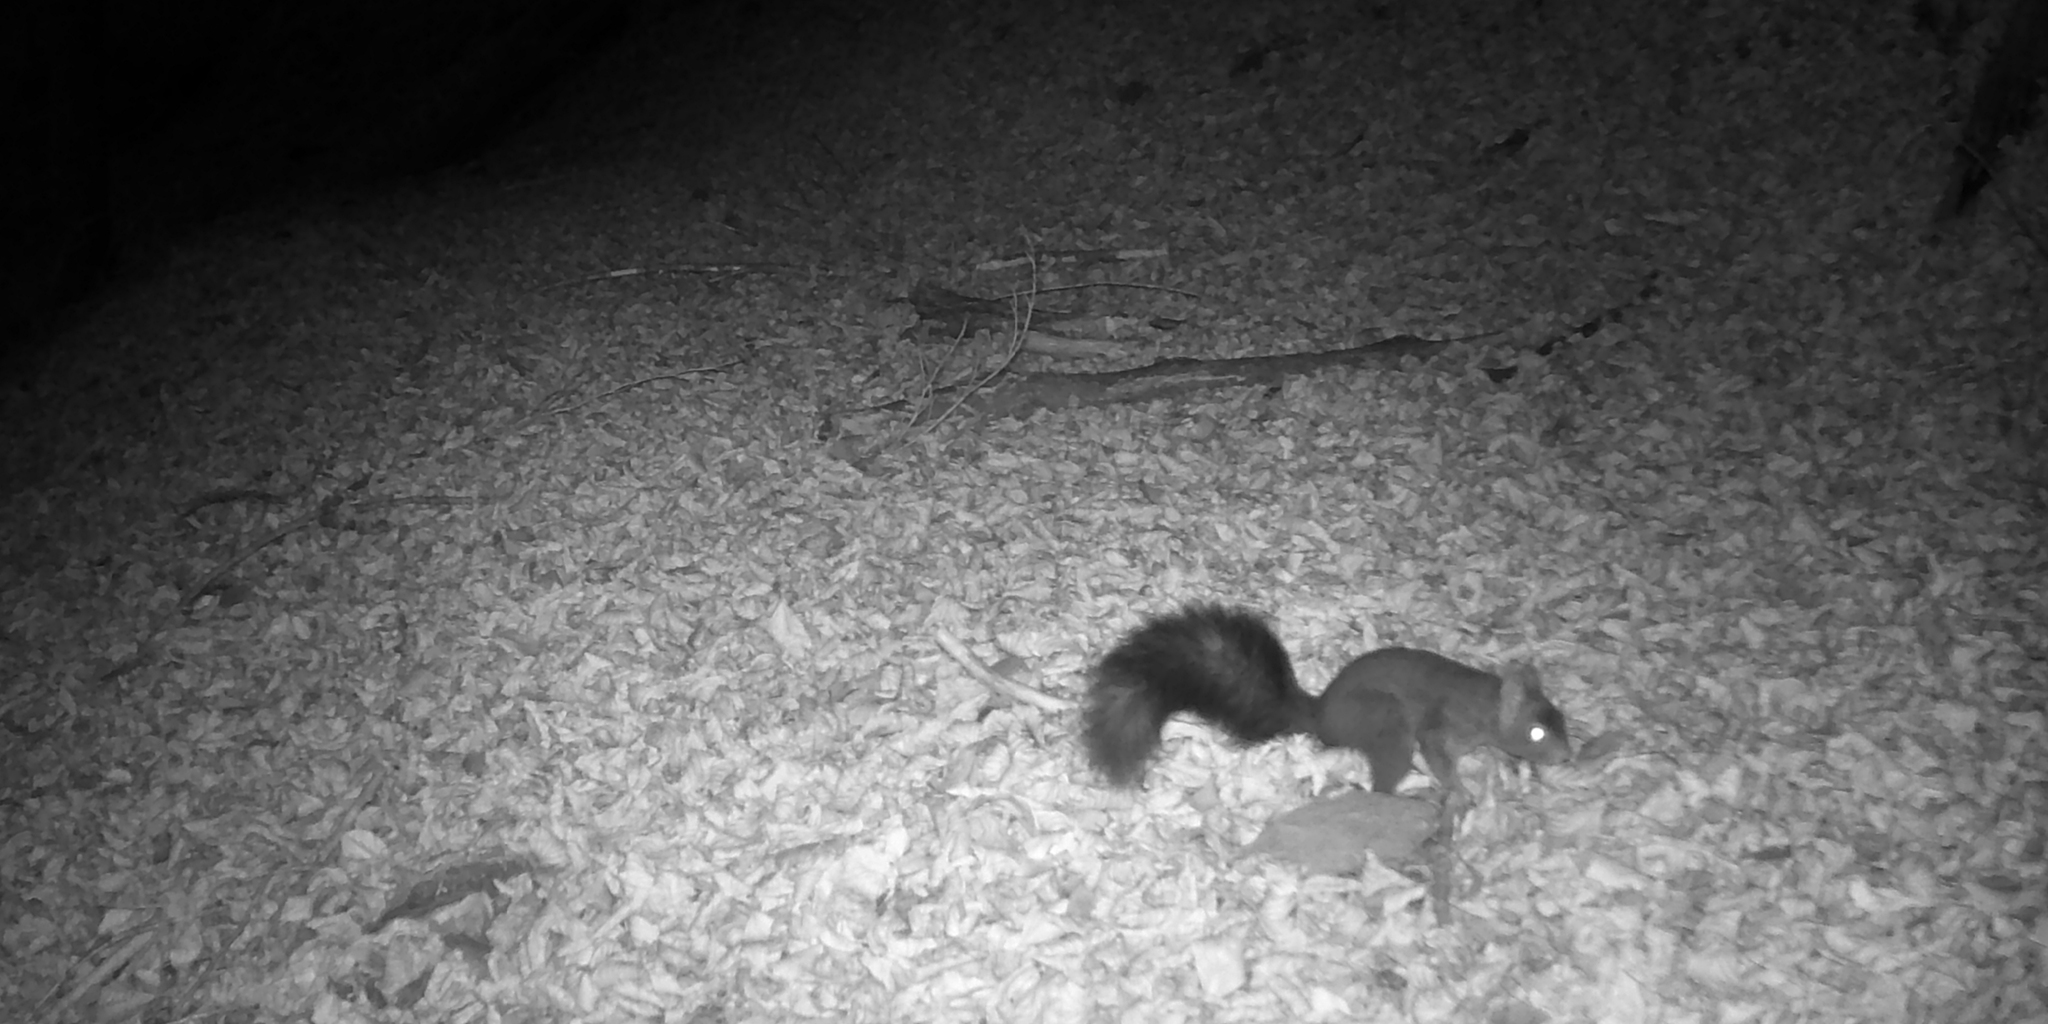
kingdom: Animalia
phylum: Chordata
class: Mammalia
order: Rodentia
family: Sciuridae
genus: Sciurus
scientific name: Sciurus vulgaris
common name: Eurasian red squirrel
